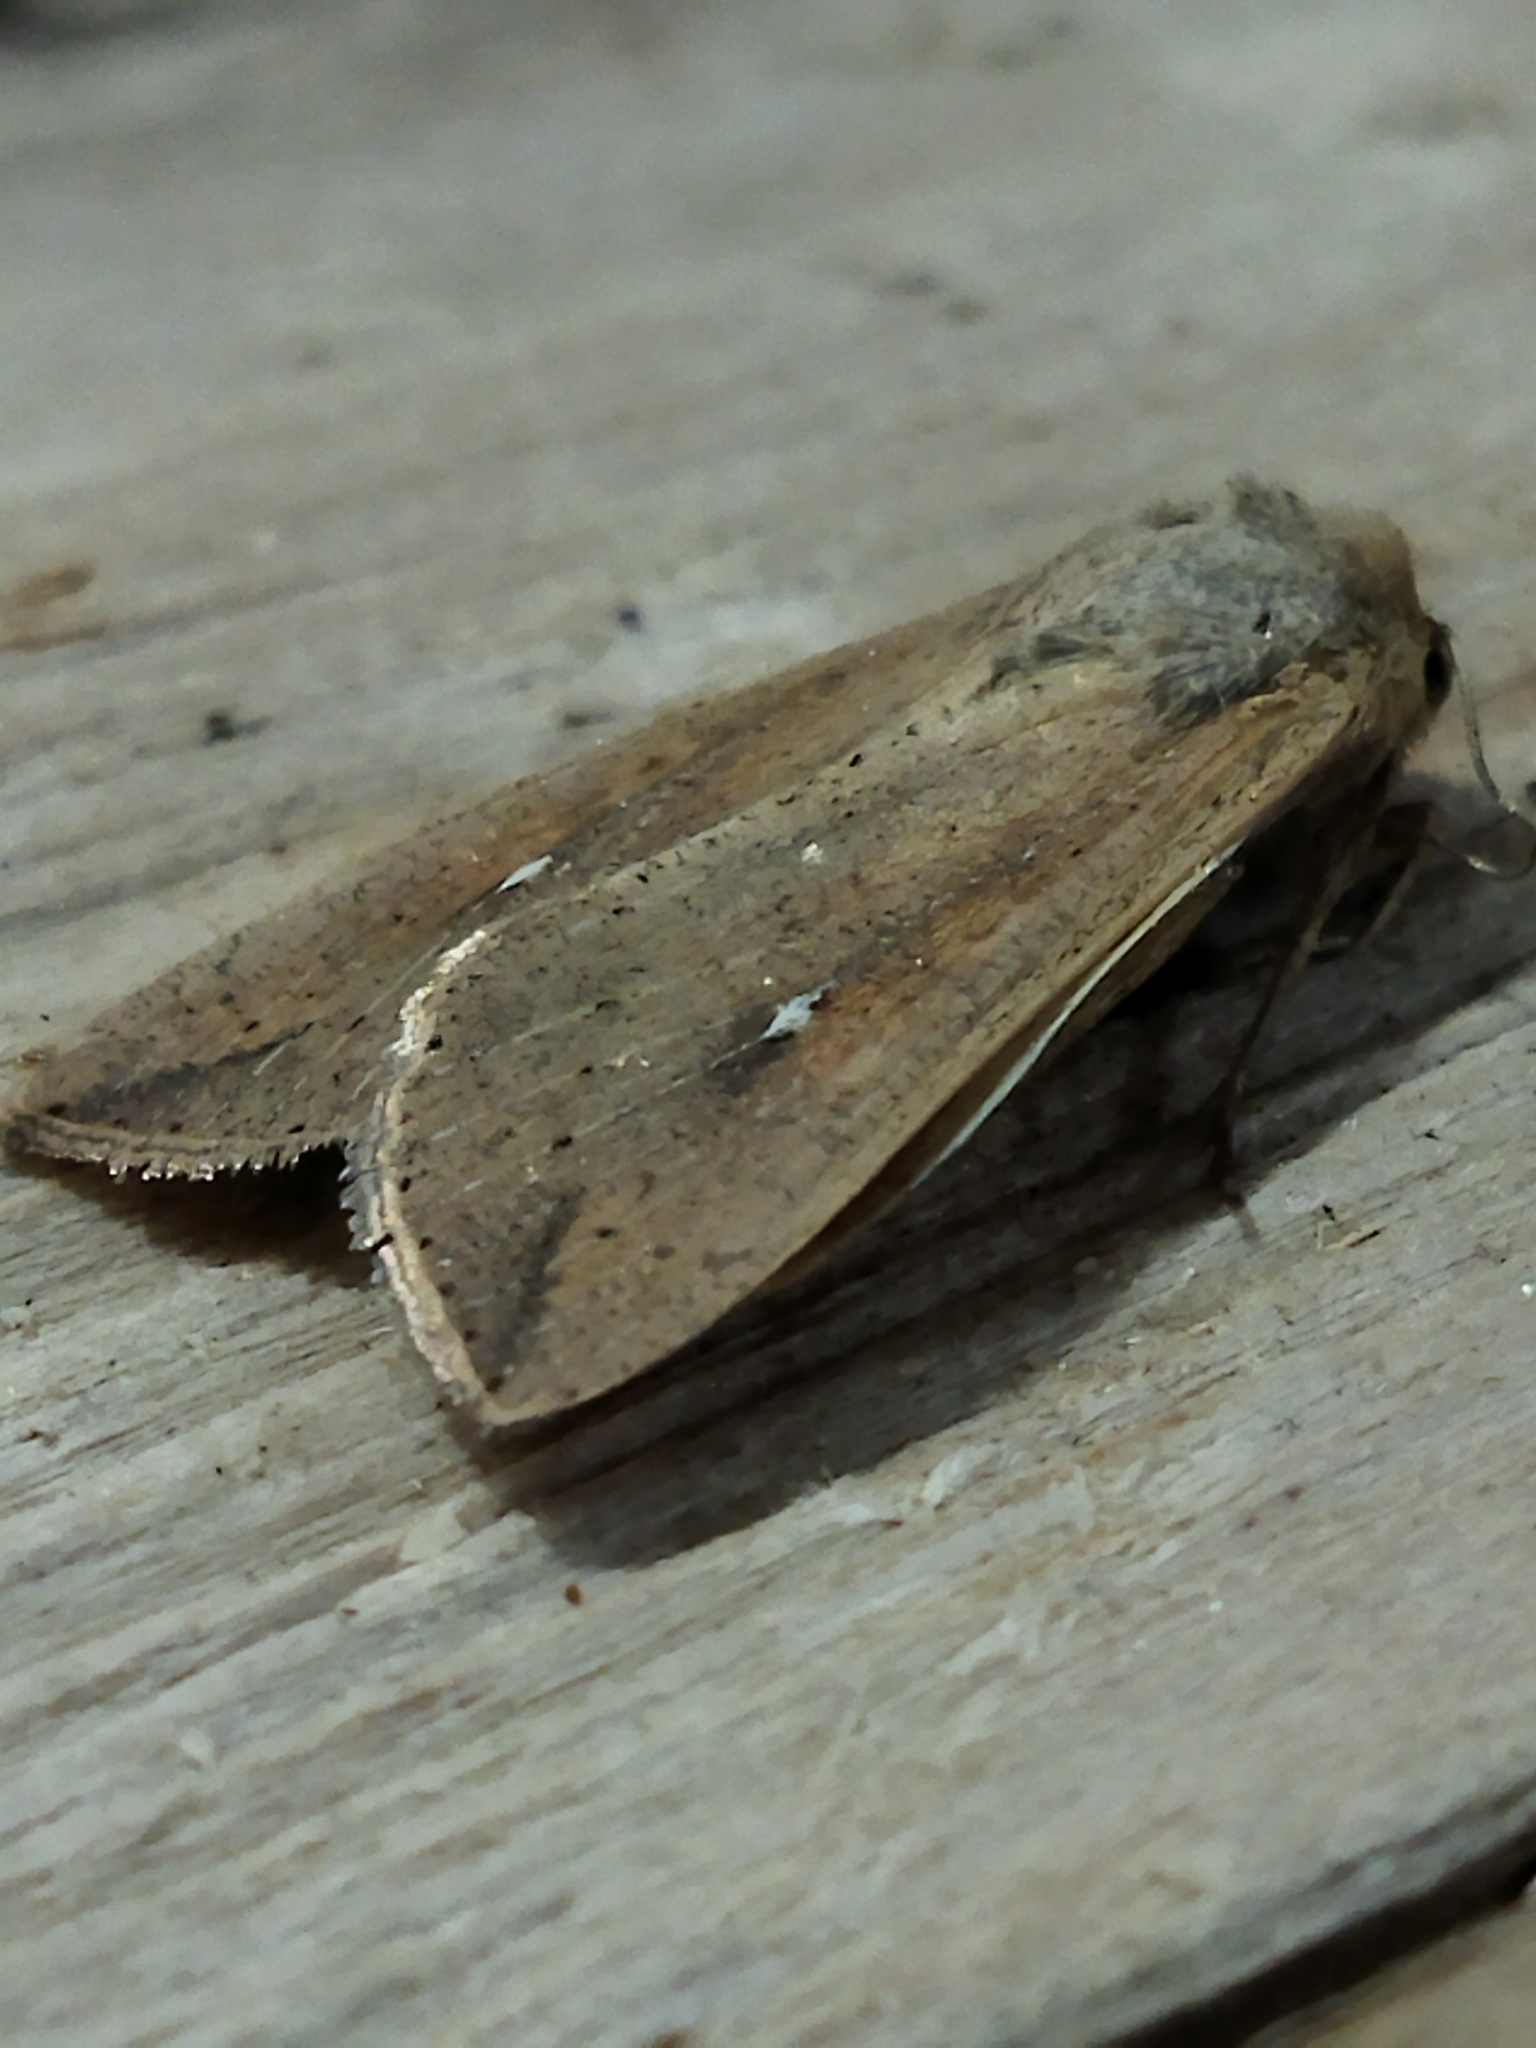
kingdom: Animalia
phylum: Arthropoda
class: Insecta
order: Lepidoptera
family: Noctuidae
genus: Mythimna
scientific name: Mythimna unipuncta
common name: White-speck
